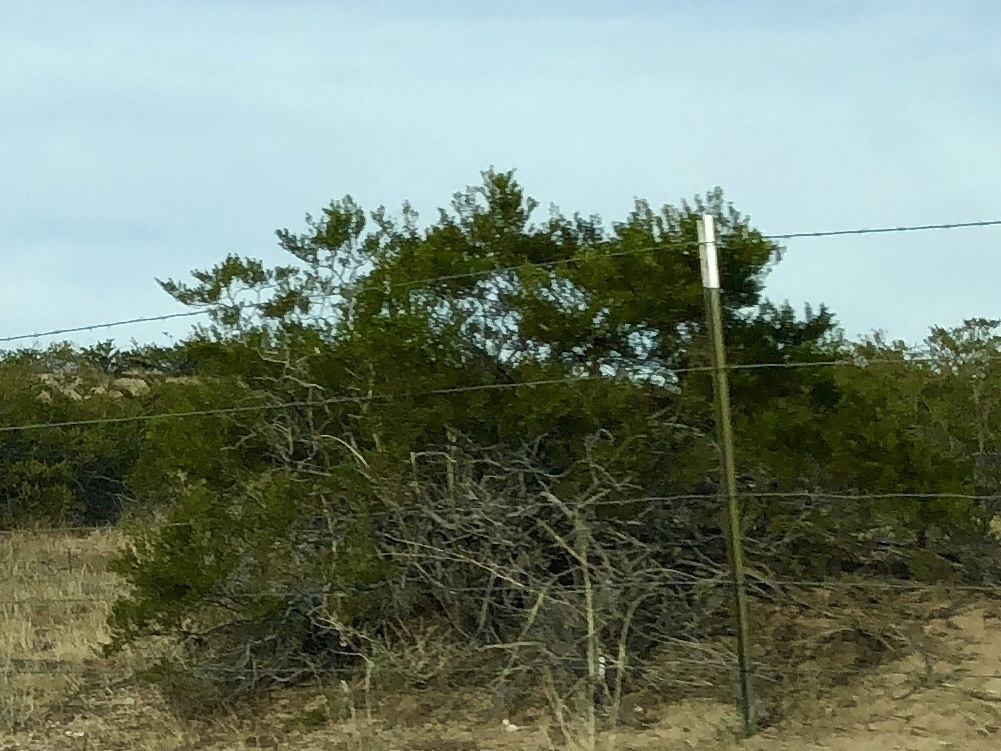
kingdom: Plantae
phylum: Tracheophyta
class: Magnoliopsida
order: Zygophyllales
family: Zygophyllaceae
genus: Larrea
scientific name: Larrea tridentata
